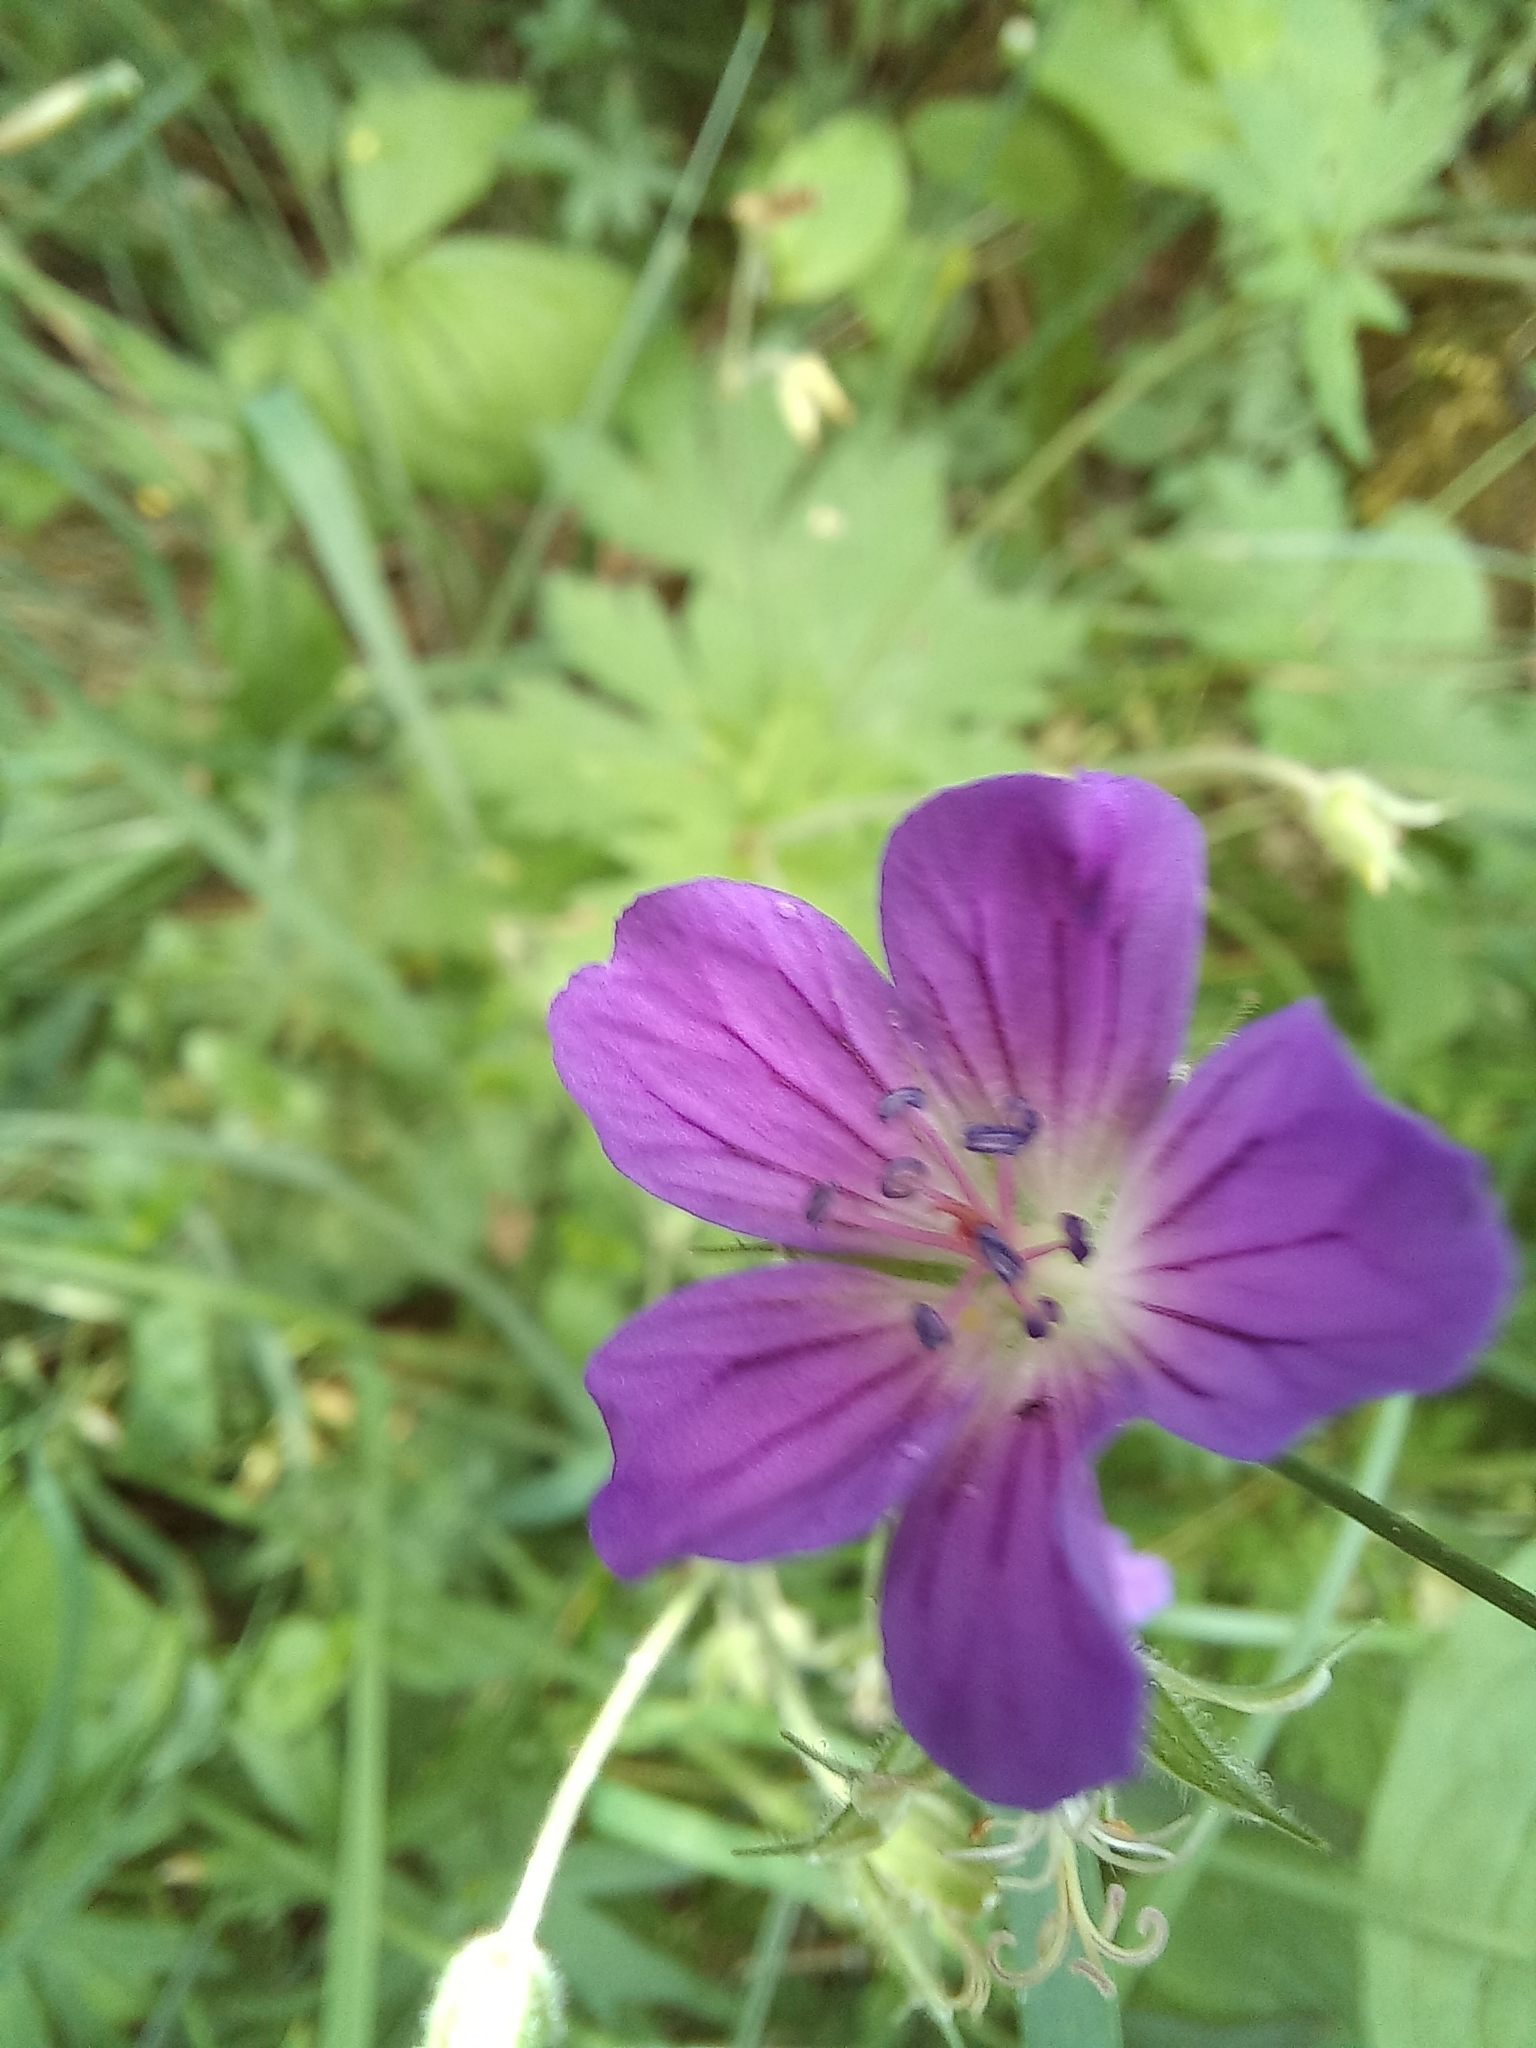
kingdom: Plantae
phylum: Tracheophyta
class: Magnoliopsida
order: Geraniales
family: Geraniaceae
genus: Geranium
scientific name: Geranium sylvaticum
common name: Wood crane's-bill
